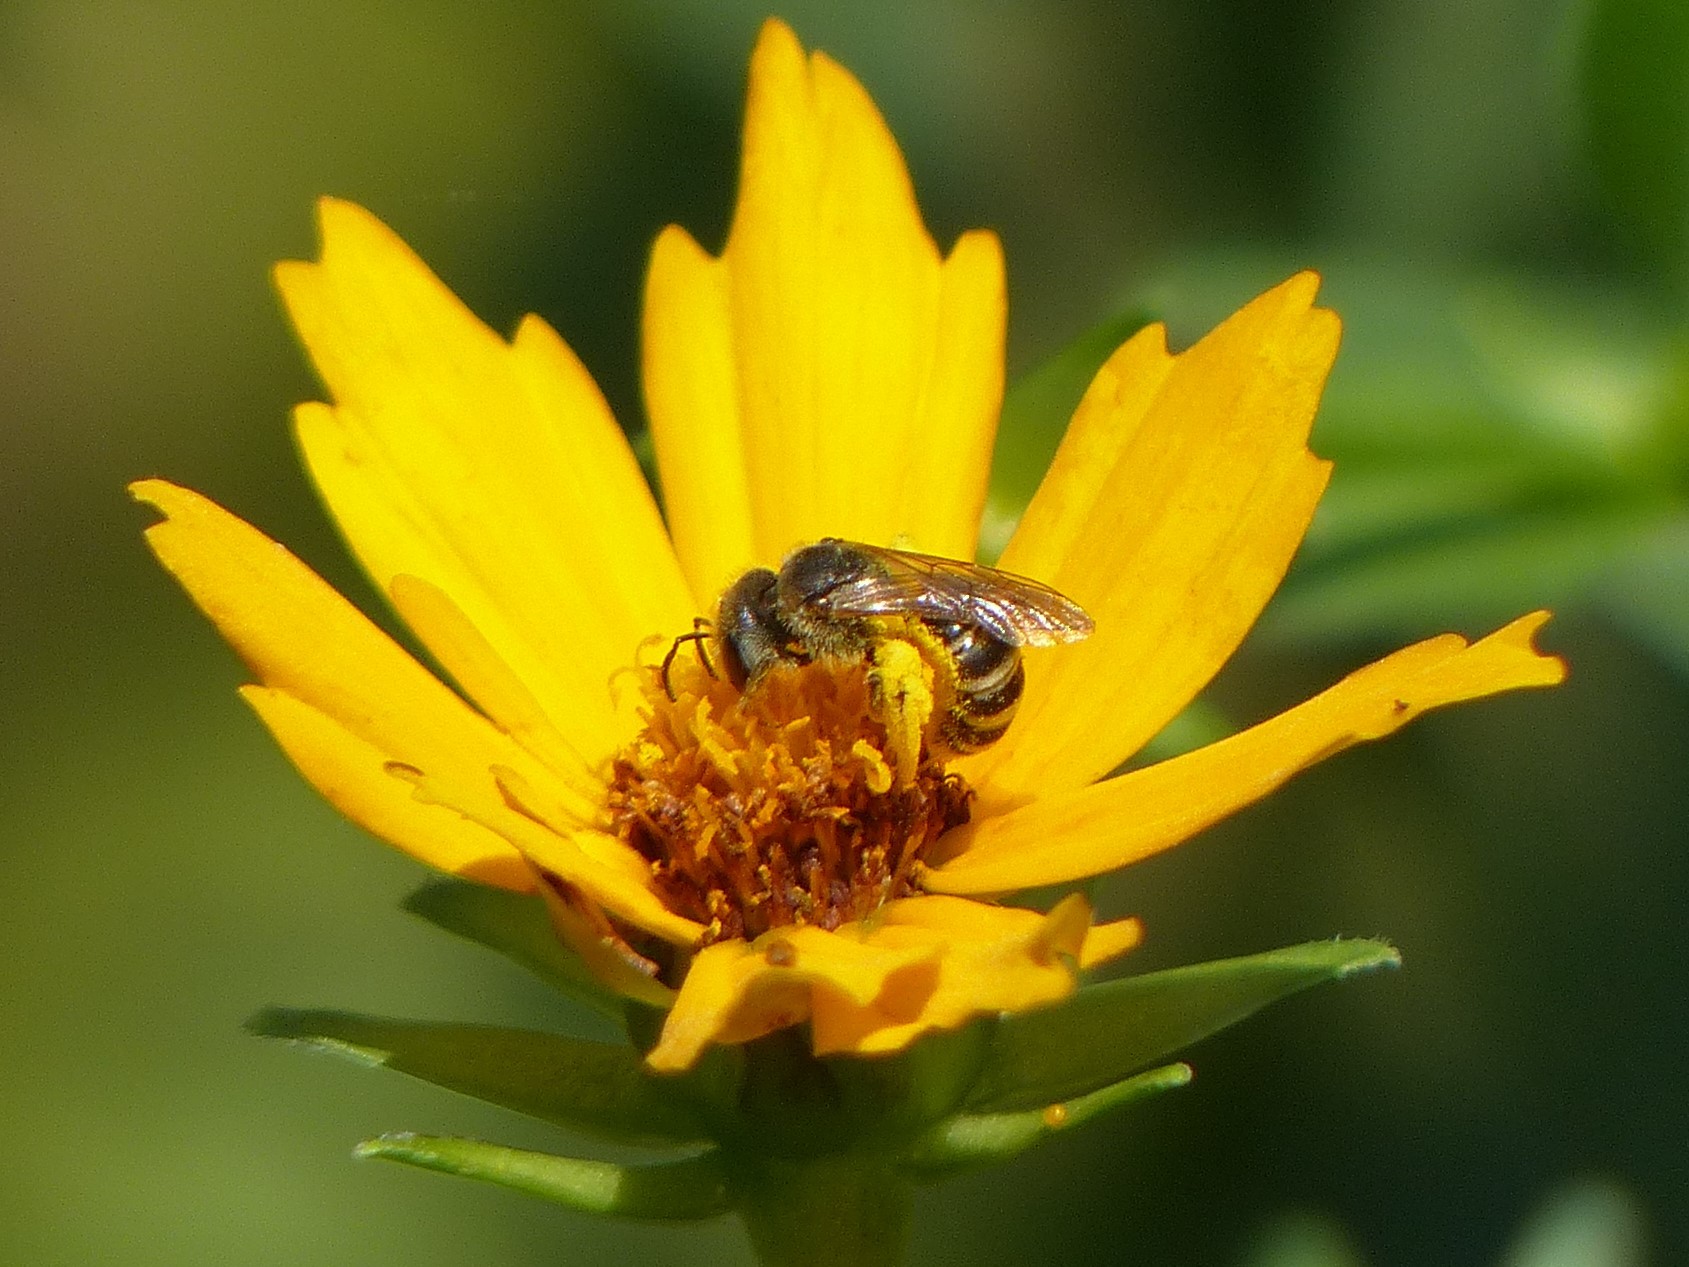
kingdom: Animalia
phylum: Arthropoda
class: Insecta
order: Hymenoptera
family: Halictidae
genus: Halictus
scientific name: Halictus ligatus
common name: Ligated furrow bee
